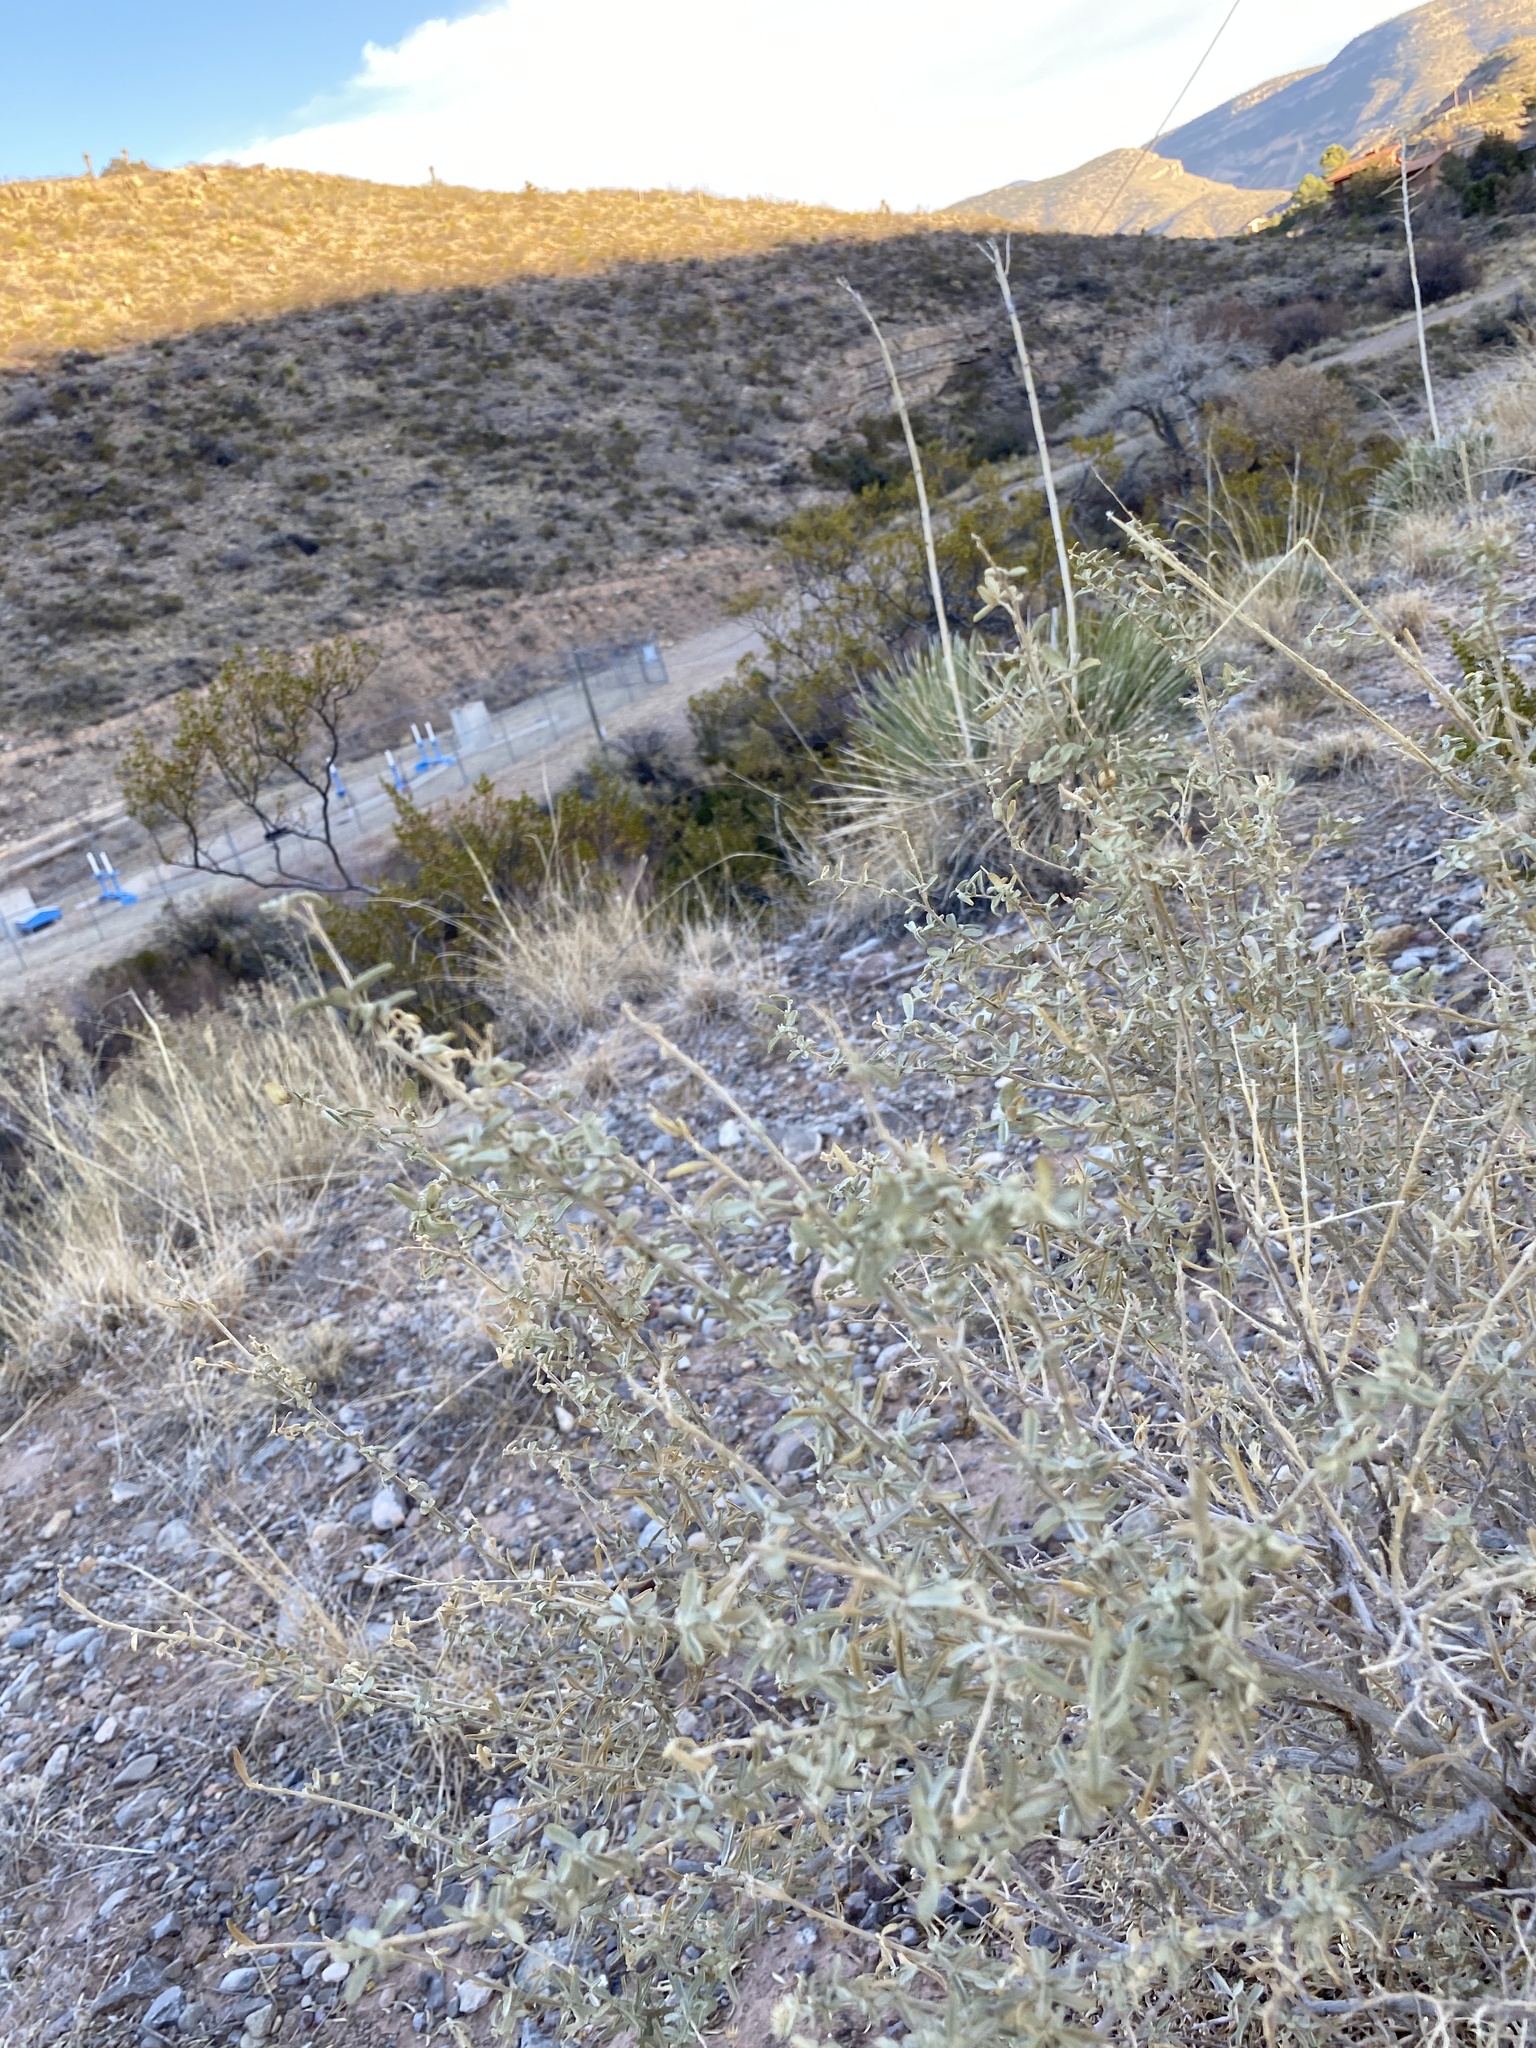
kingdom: Plantae
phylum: Tracheophyta
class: Magnoliopsida
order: Caryophyllales
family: Amaranthaceae
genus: Atriplex
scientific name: Atriplex canescens
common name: Four-wing saltbush
